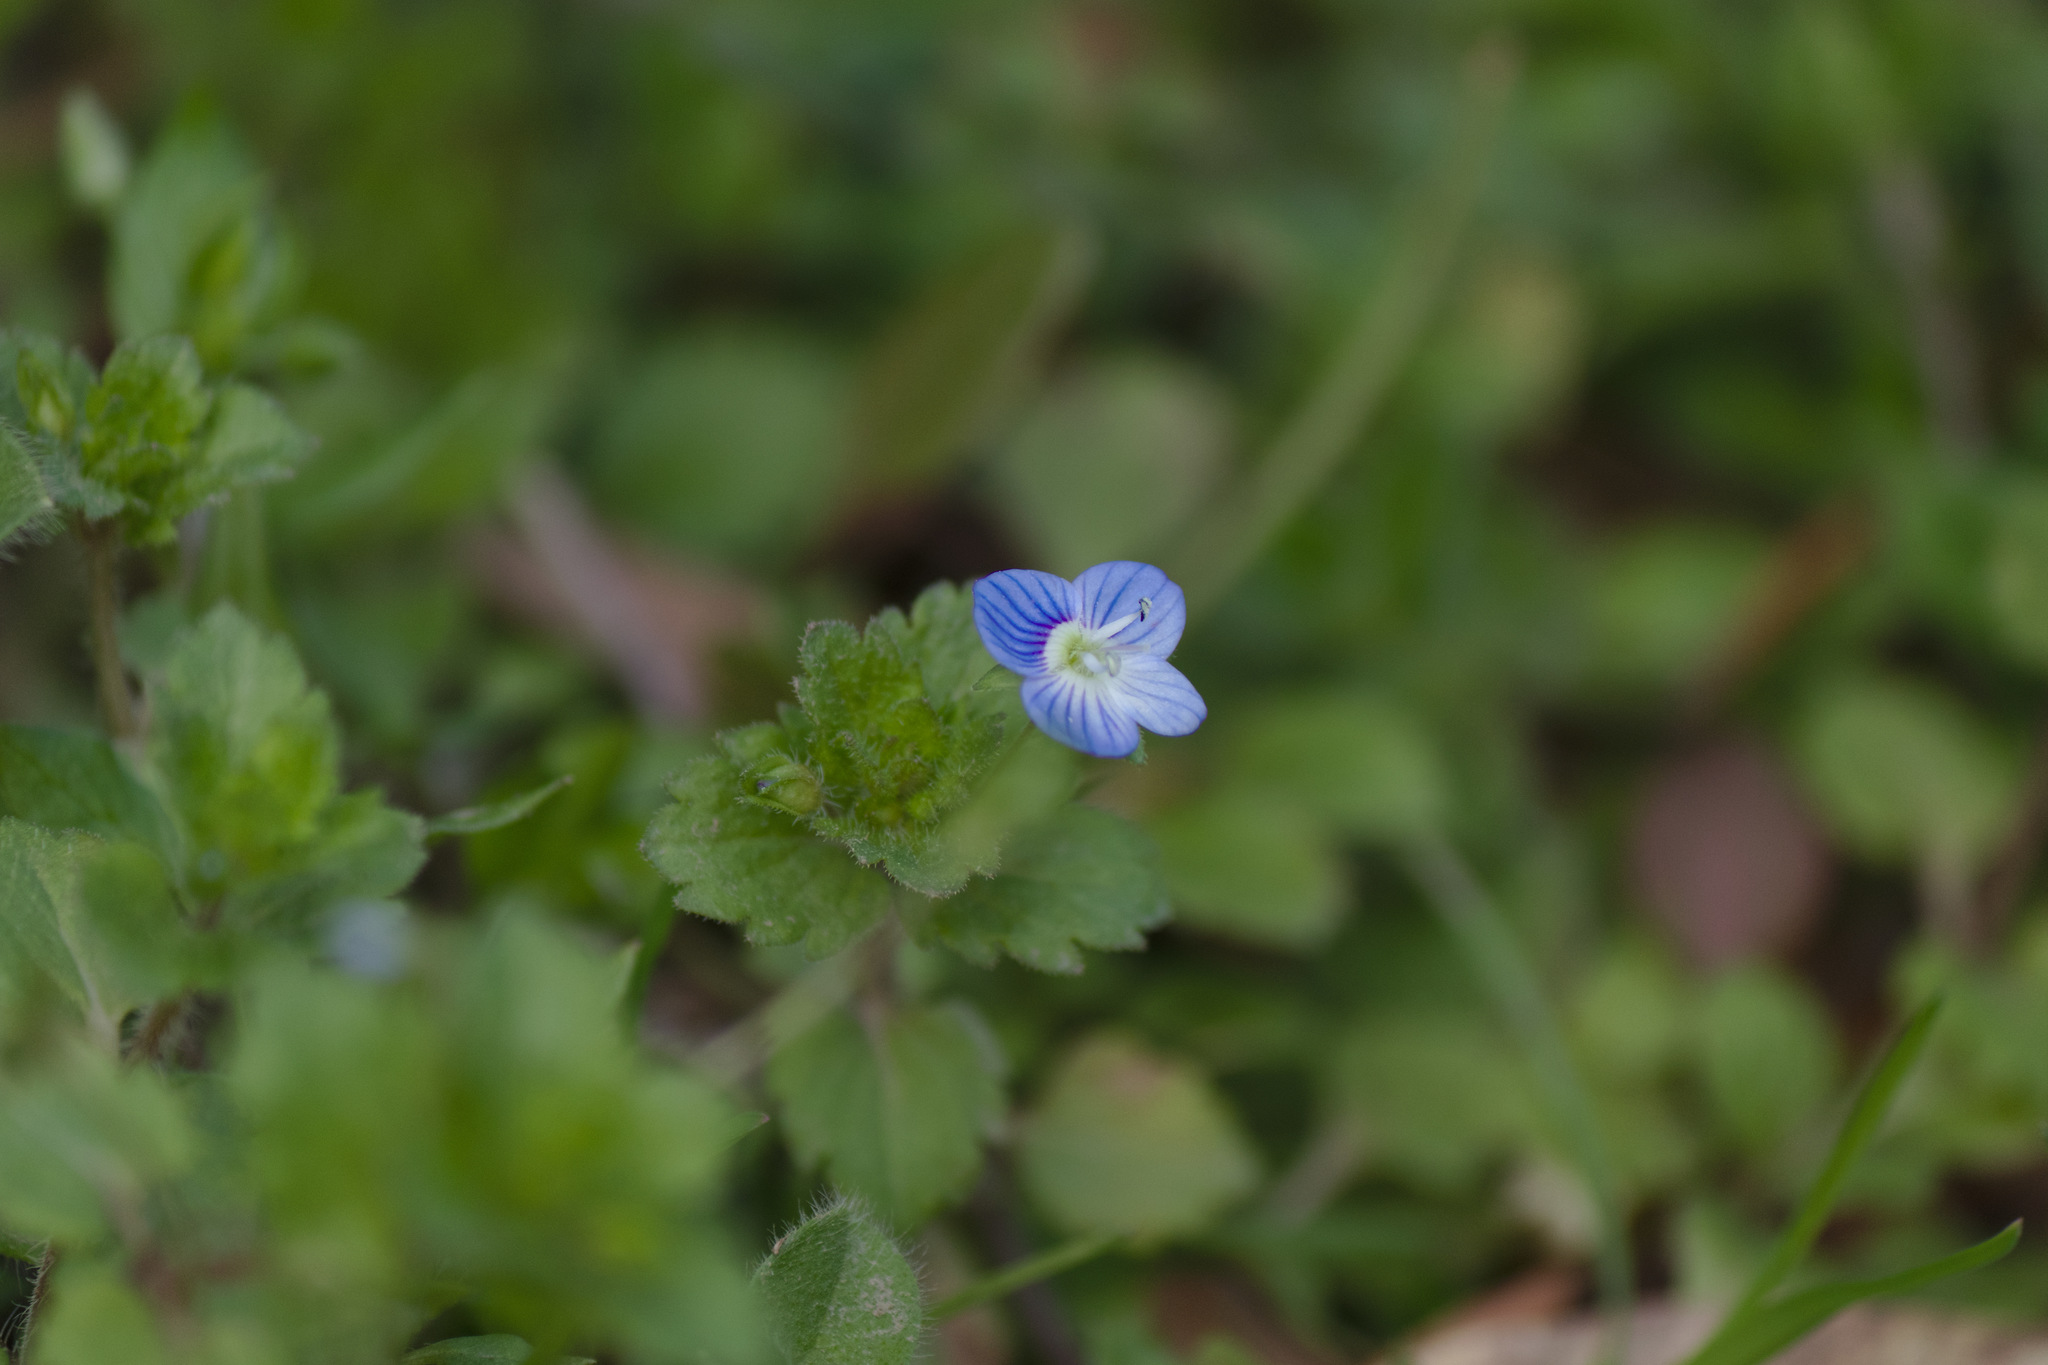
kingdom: Plantae
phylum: Tracheophyta
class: Magnoliopsida
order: Lamiales
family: Plantaginaceae
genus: Veronica
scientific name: Veronica persica
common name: Common field-speedwell
